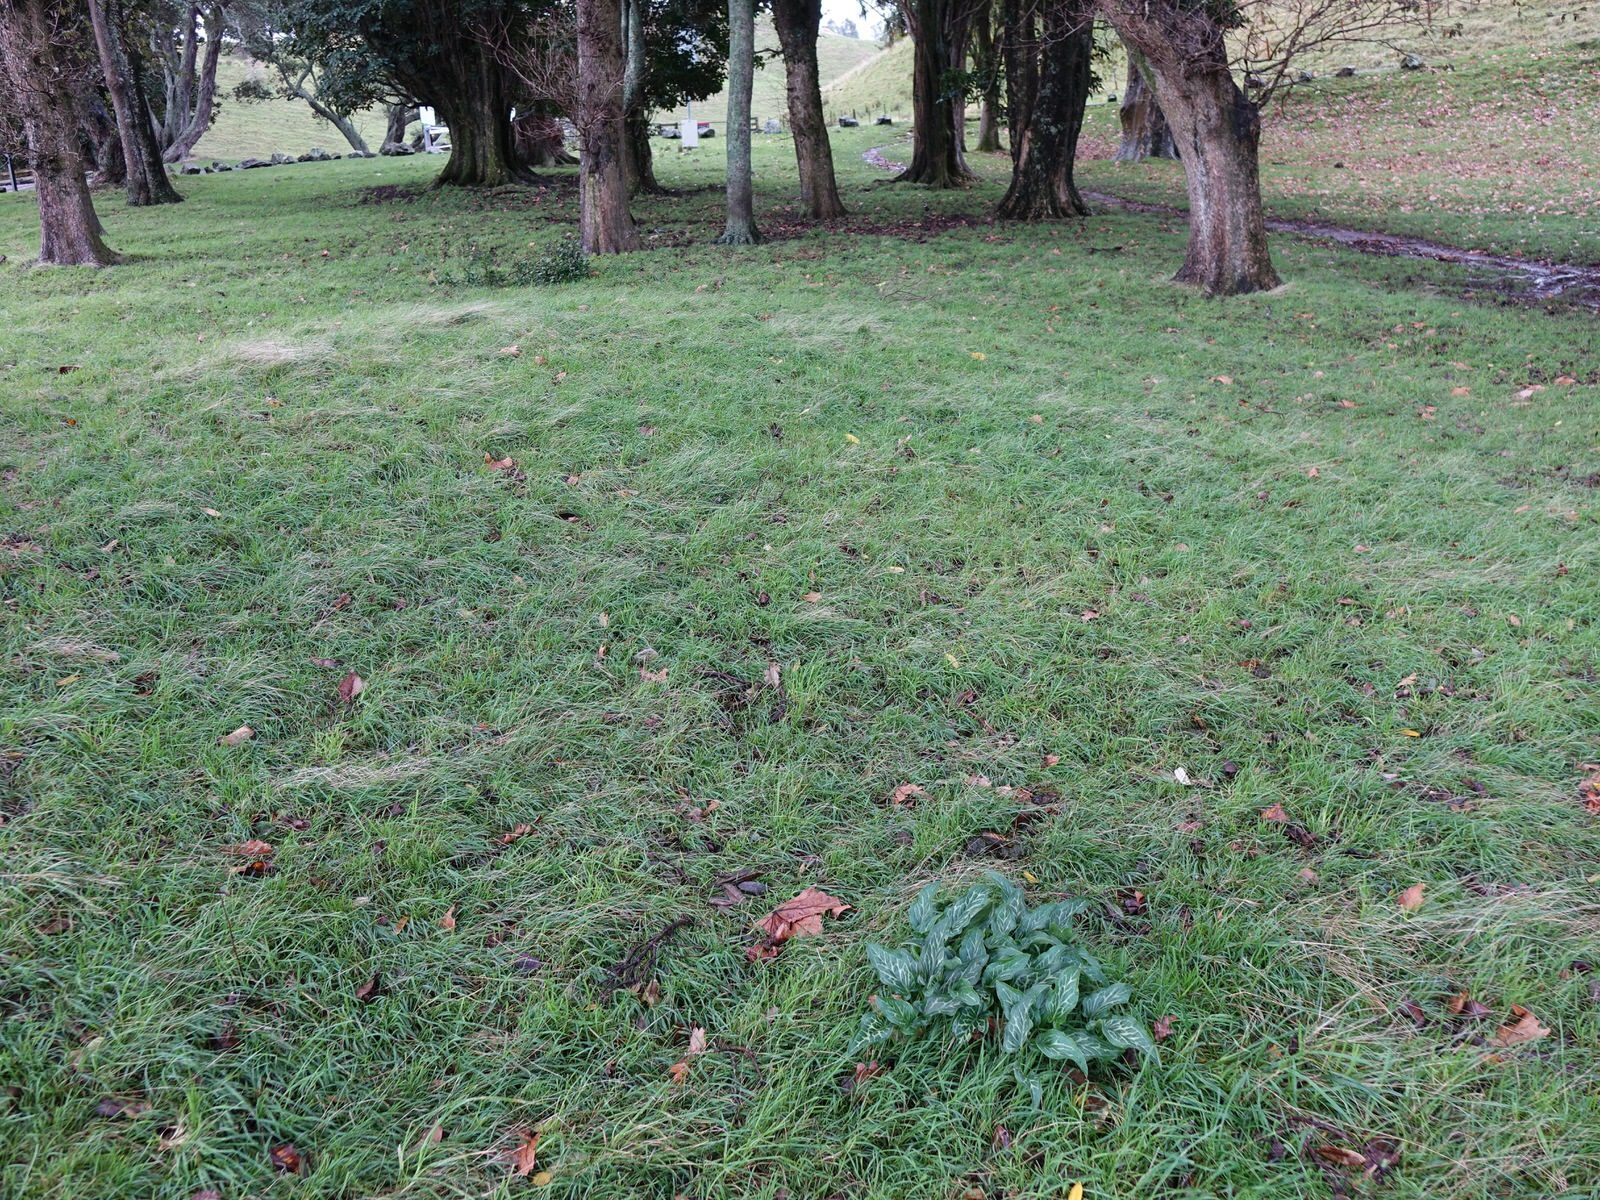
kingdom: Plantae
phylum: Tracheophyta
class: Liliopsida
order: Alismatales
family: Araceae
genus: Arum
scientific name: Arum italicum
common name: Italian lords-and-ladies
